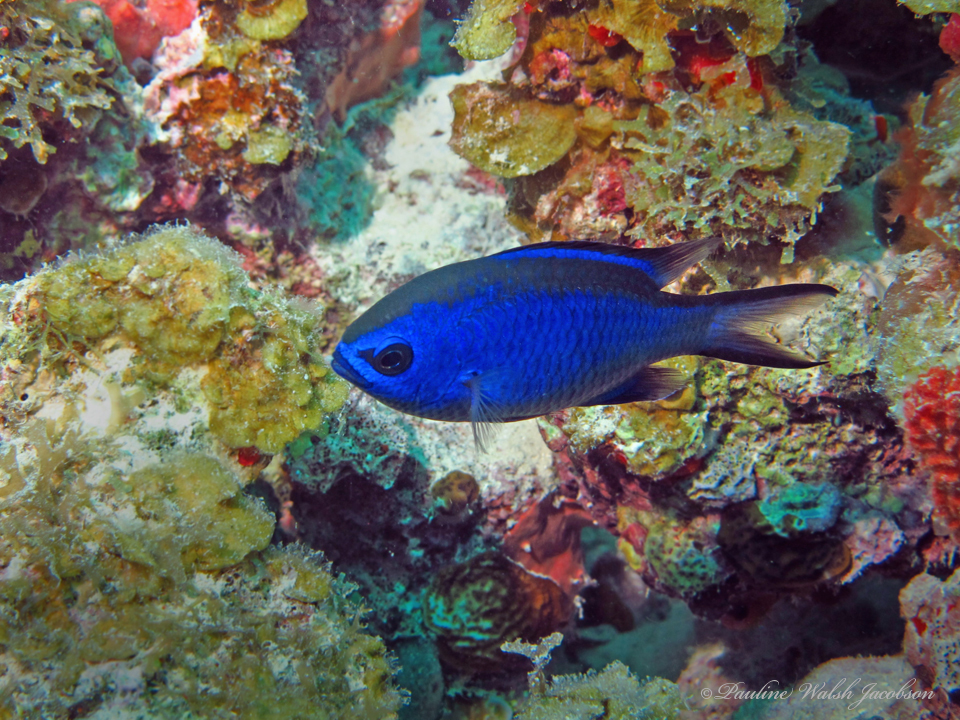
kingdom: Animalia
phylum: Chordata
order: Perciformes
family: Pomacentridae
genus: Chromis
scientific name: Chromis cyanea
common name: Blue chromis
